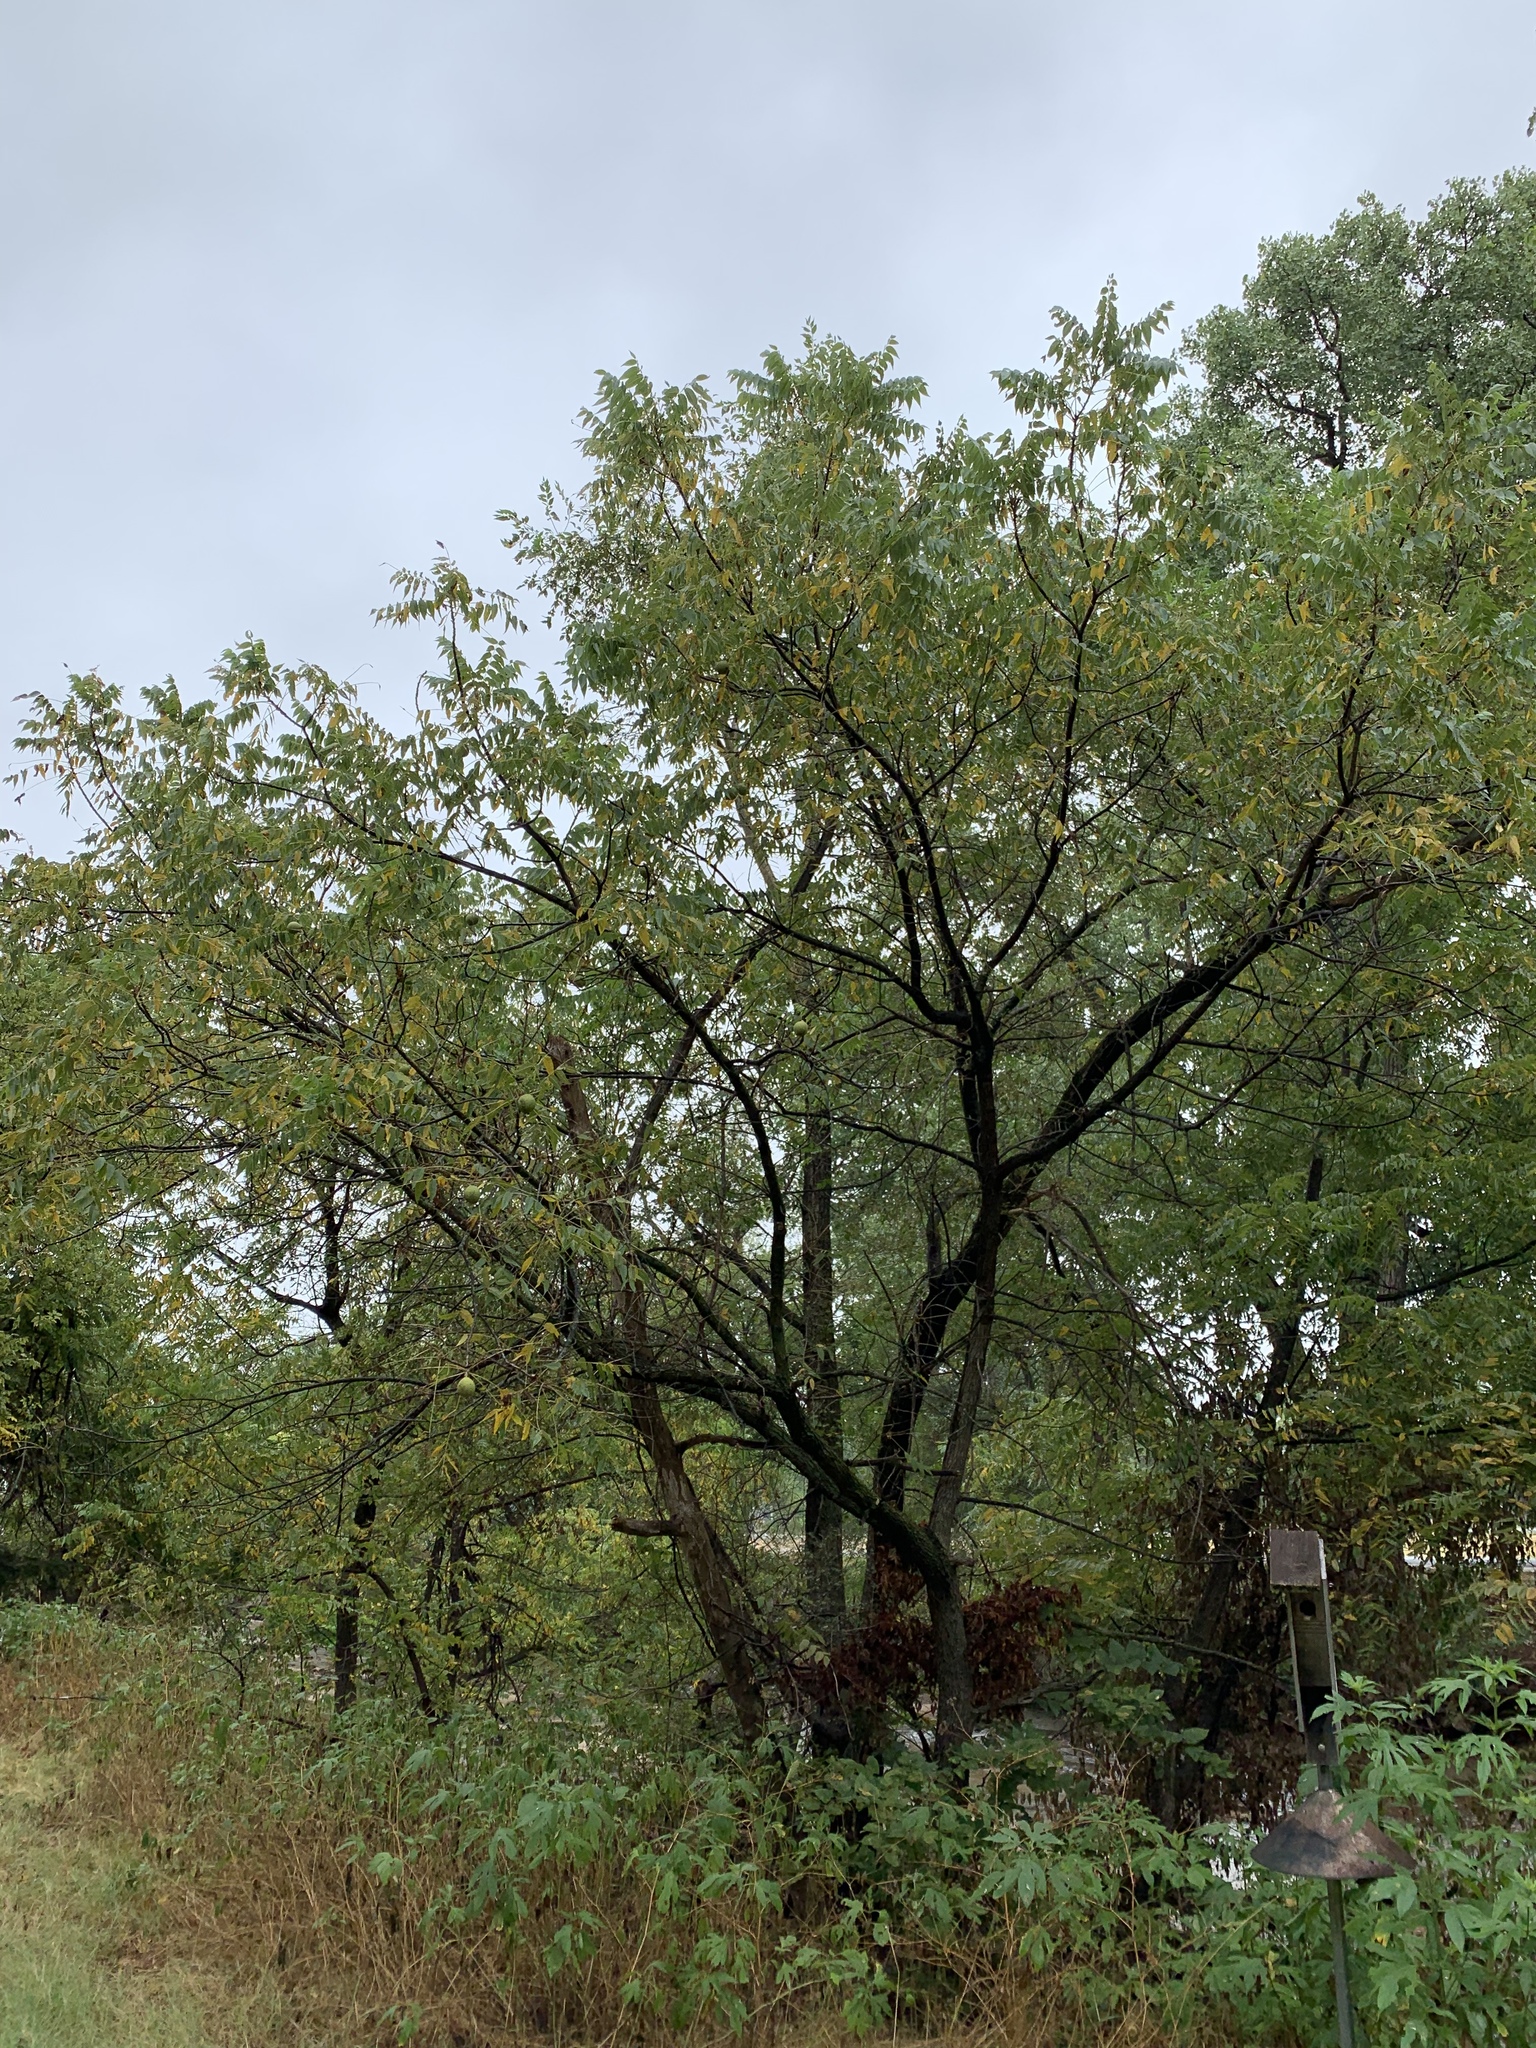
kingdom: Plantae
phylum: Tracheophyta
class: Magnoliopsida
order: Fagales
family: Juglandaceae
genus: Juglans
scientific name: Juglans nigra
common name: Black walnut
